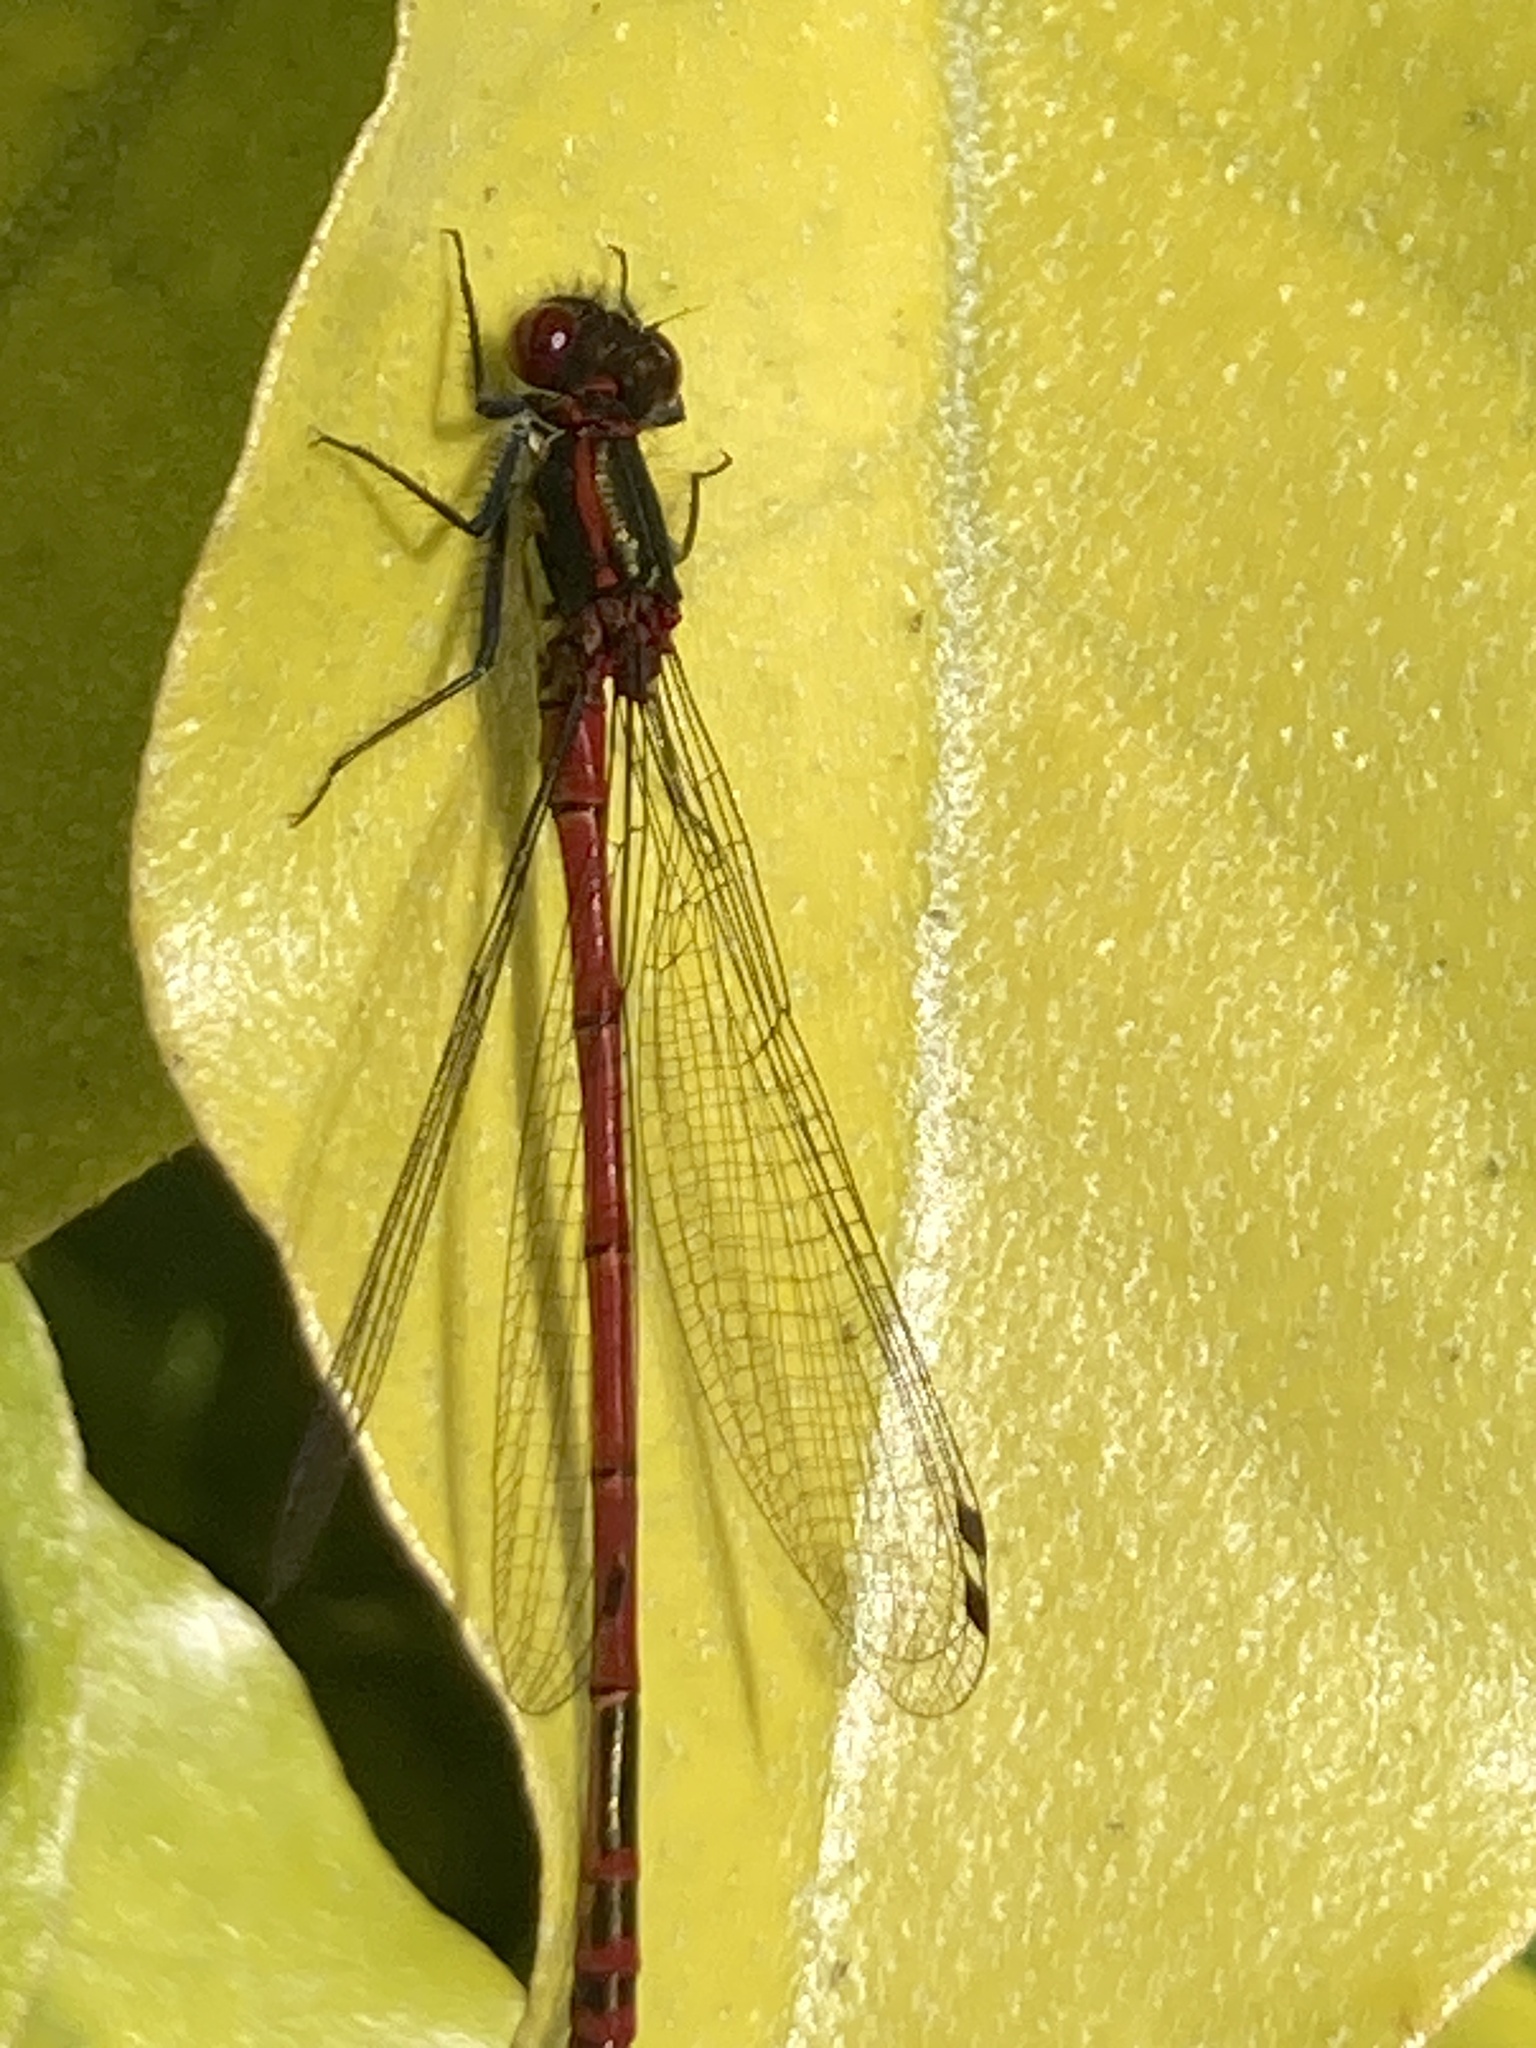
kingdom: Animalia
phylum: Arthropoda
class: Insecta
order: Odonata
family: Coenagrionidae
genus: Pyrrhosoma
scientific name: Pyrrhosoma nymphula
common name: Large red damsel
